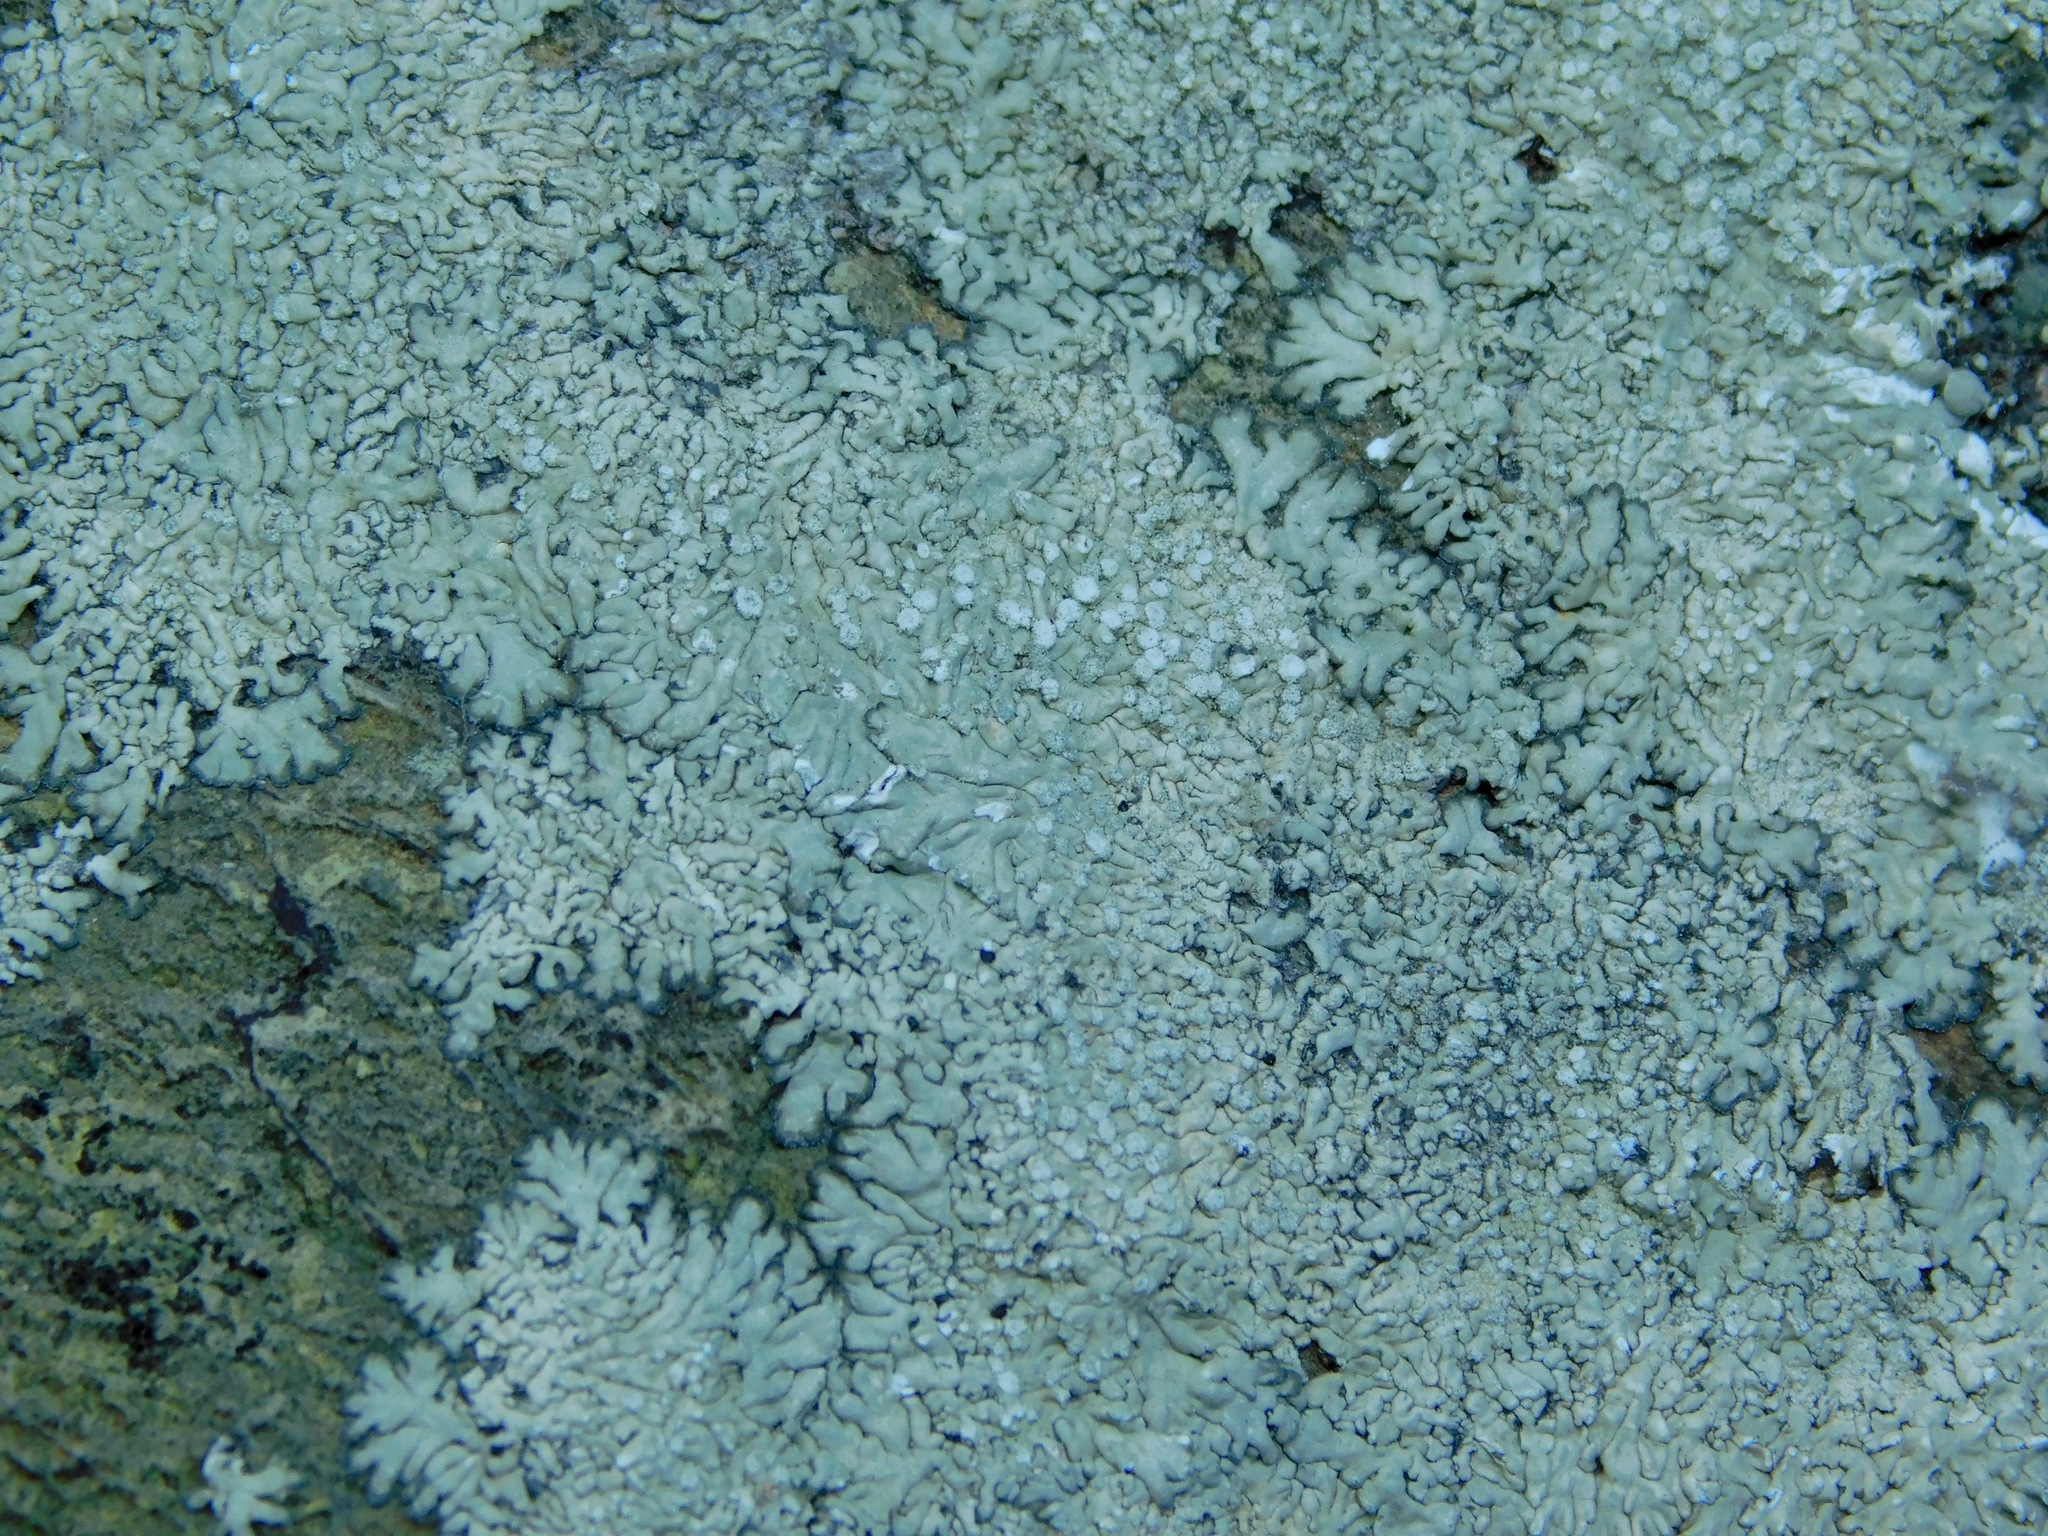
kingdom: Fungi
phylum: Ascomycota
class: Lecanoromycetes
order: Caliciales
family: Caliciaceae
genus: Dirinaria
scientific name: Dirinaria frostii
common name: Frosty medallion lichen
